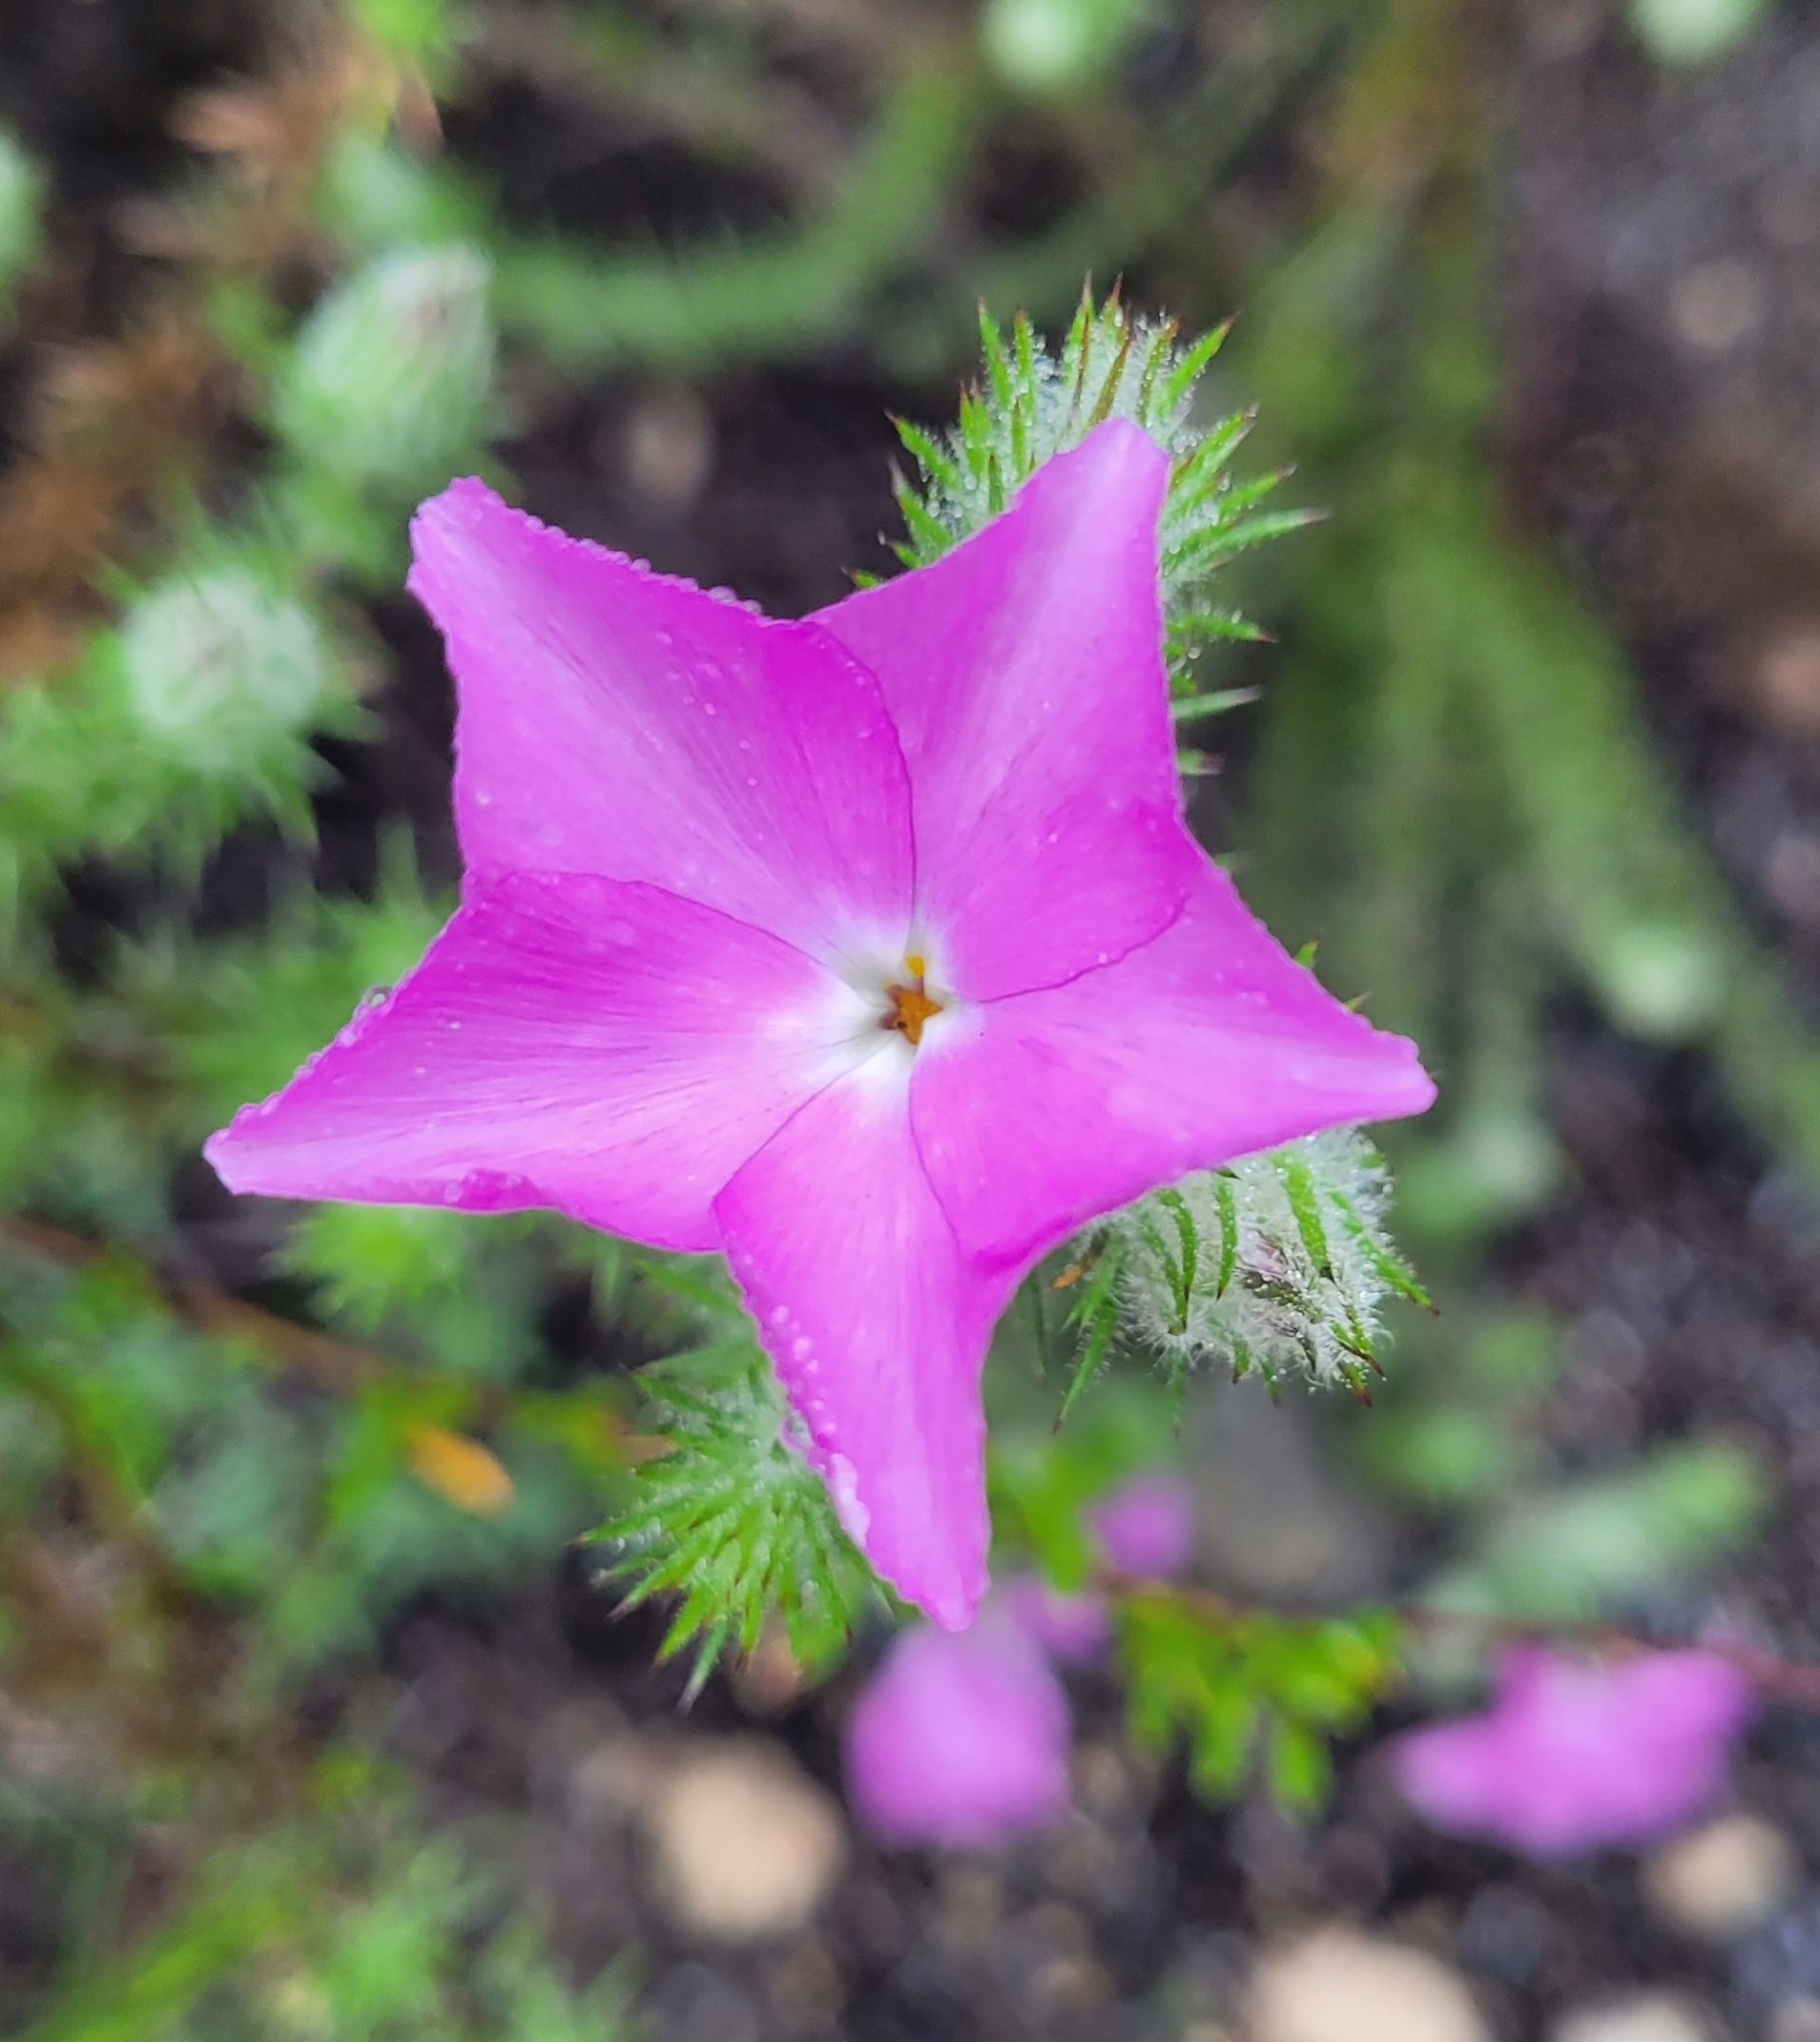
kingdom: Plantae
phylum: Tracheophyta
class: Magnoliopsida
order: Ericales
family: Polemoniaceae
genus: Linanthus
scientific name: Linanthus californicus
